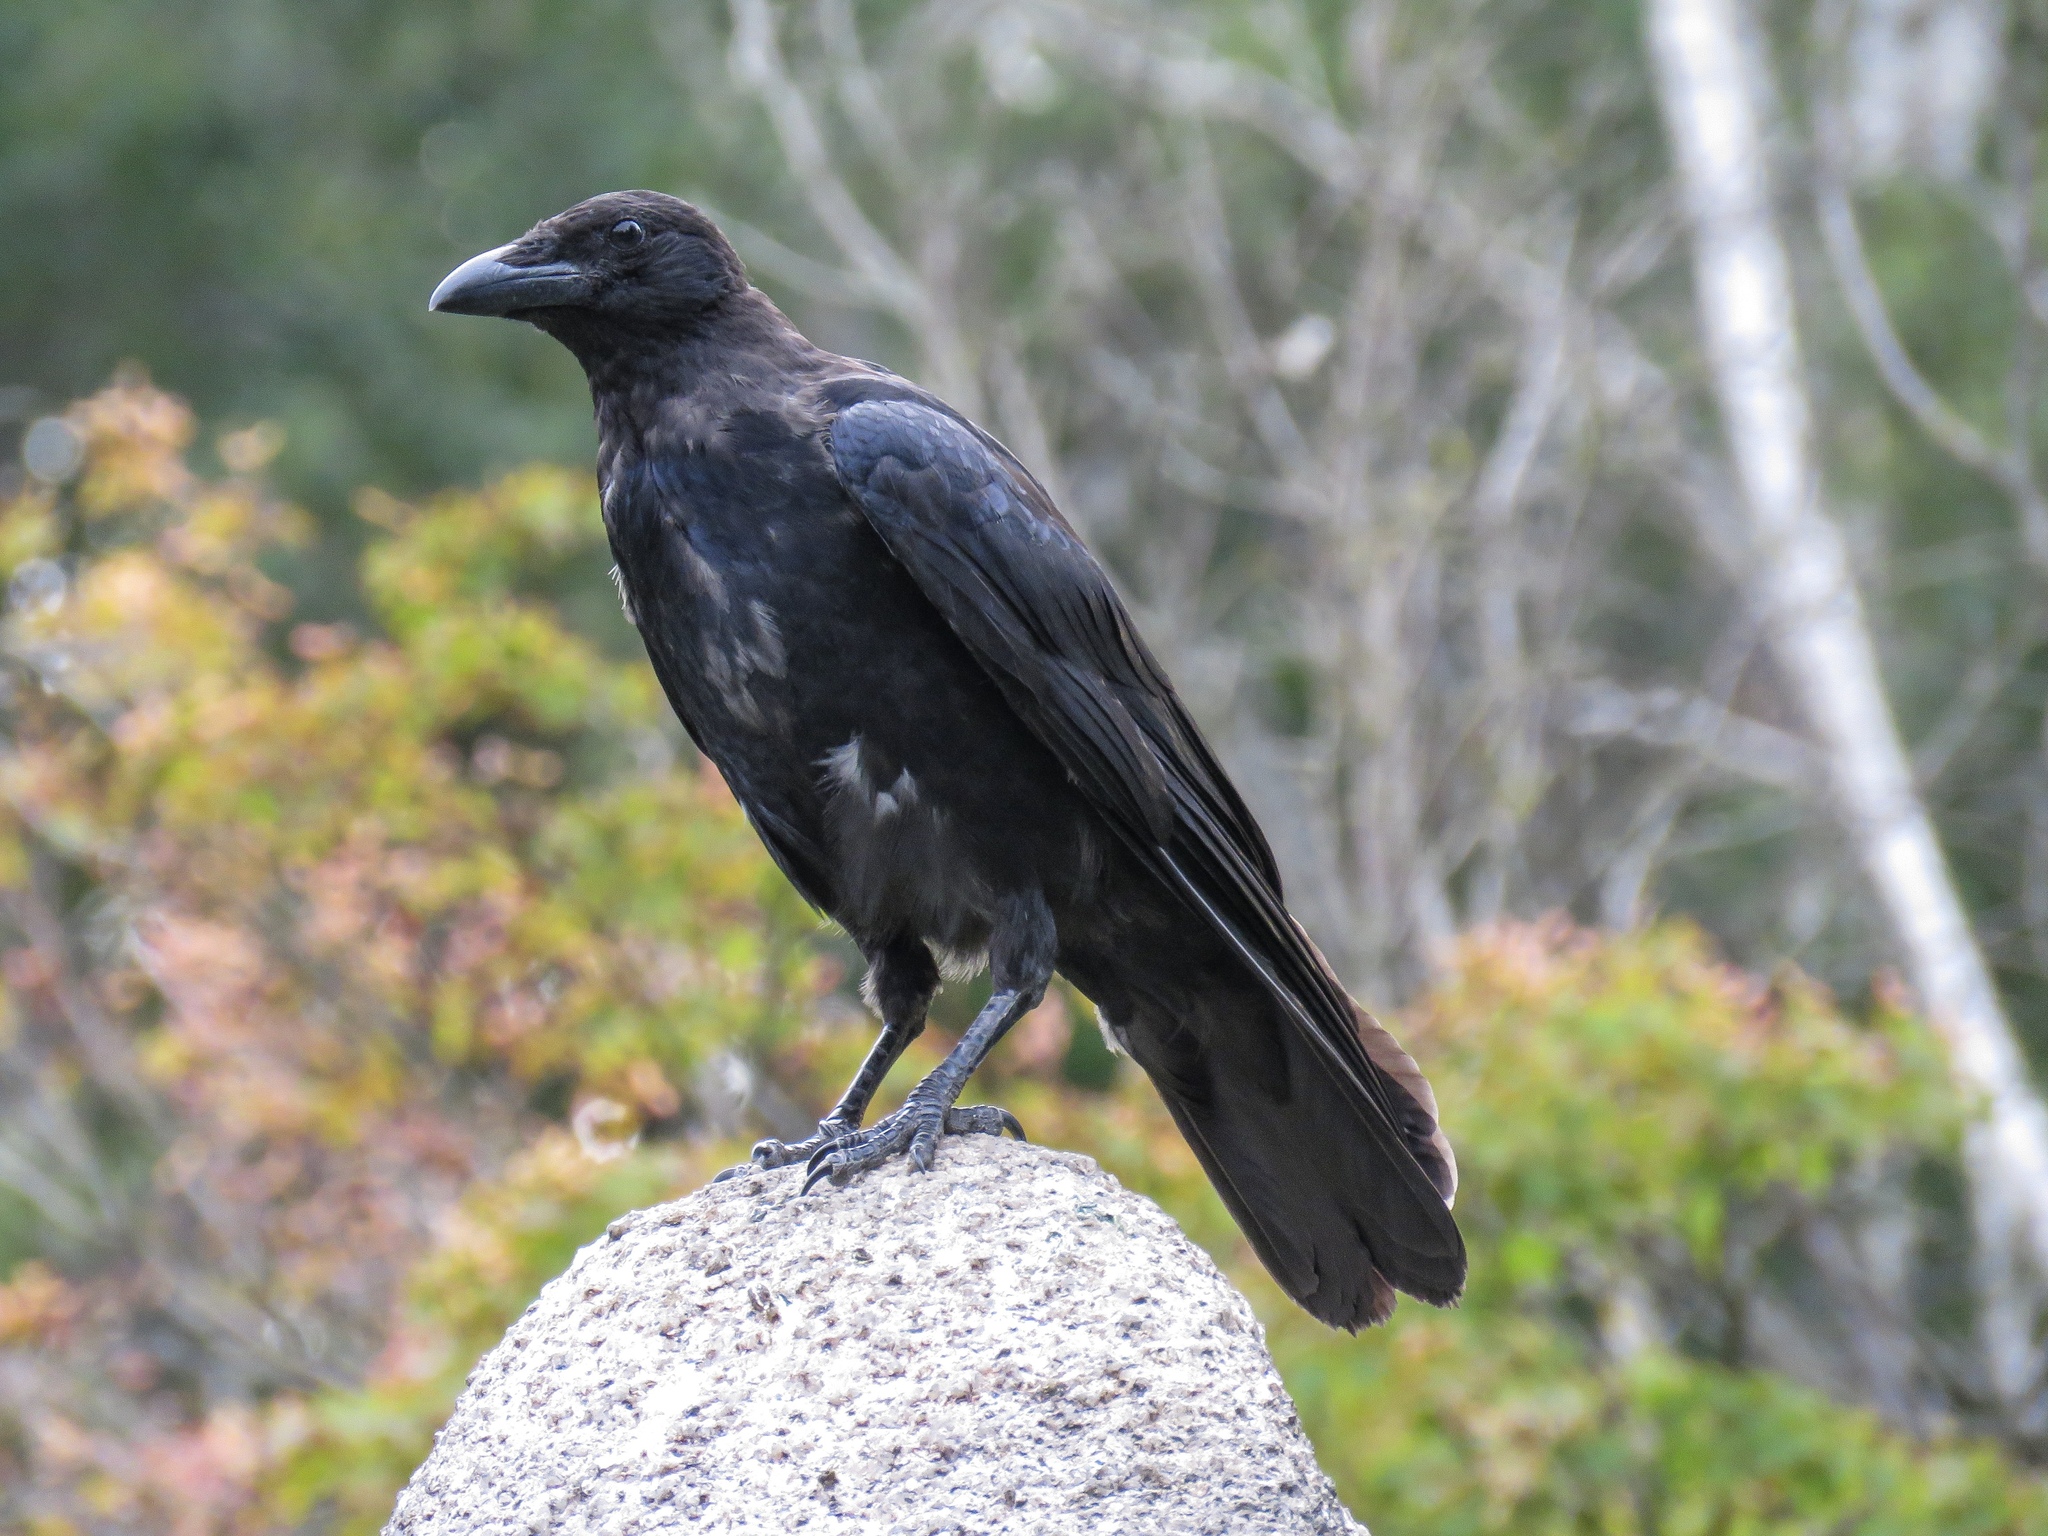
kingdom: Animalia
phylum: Chordata
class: Aves
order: Passeriformes
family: Corvidae
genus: Corvus
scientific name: Corvus corone
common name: Carrion crow
